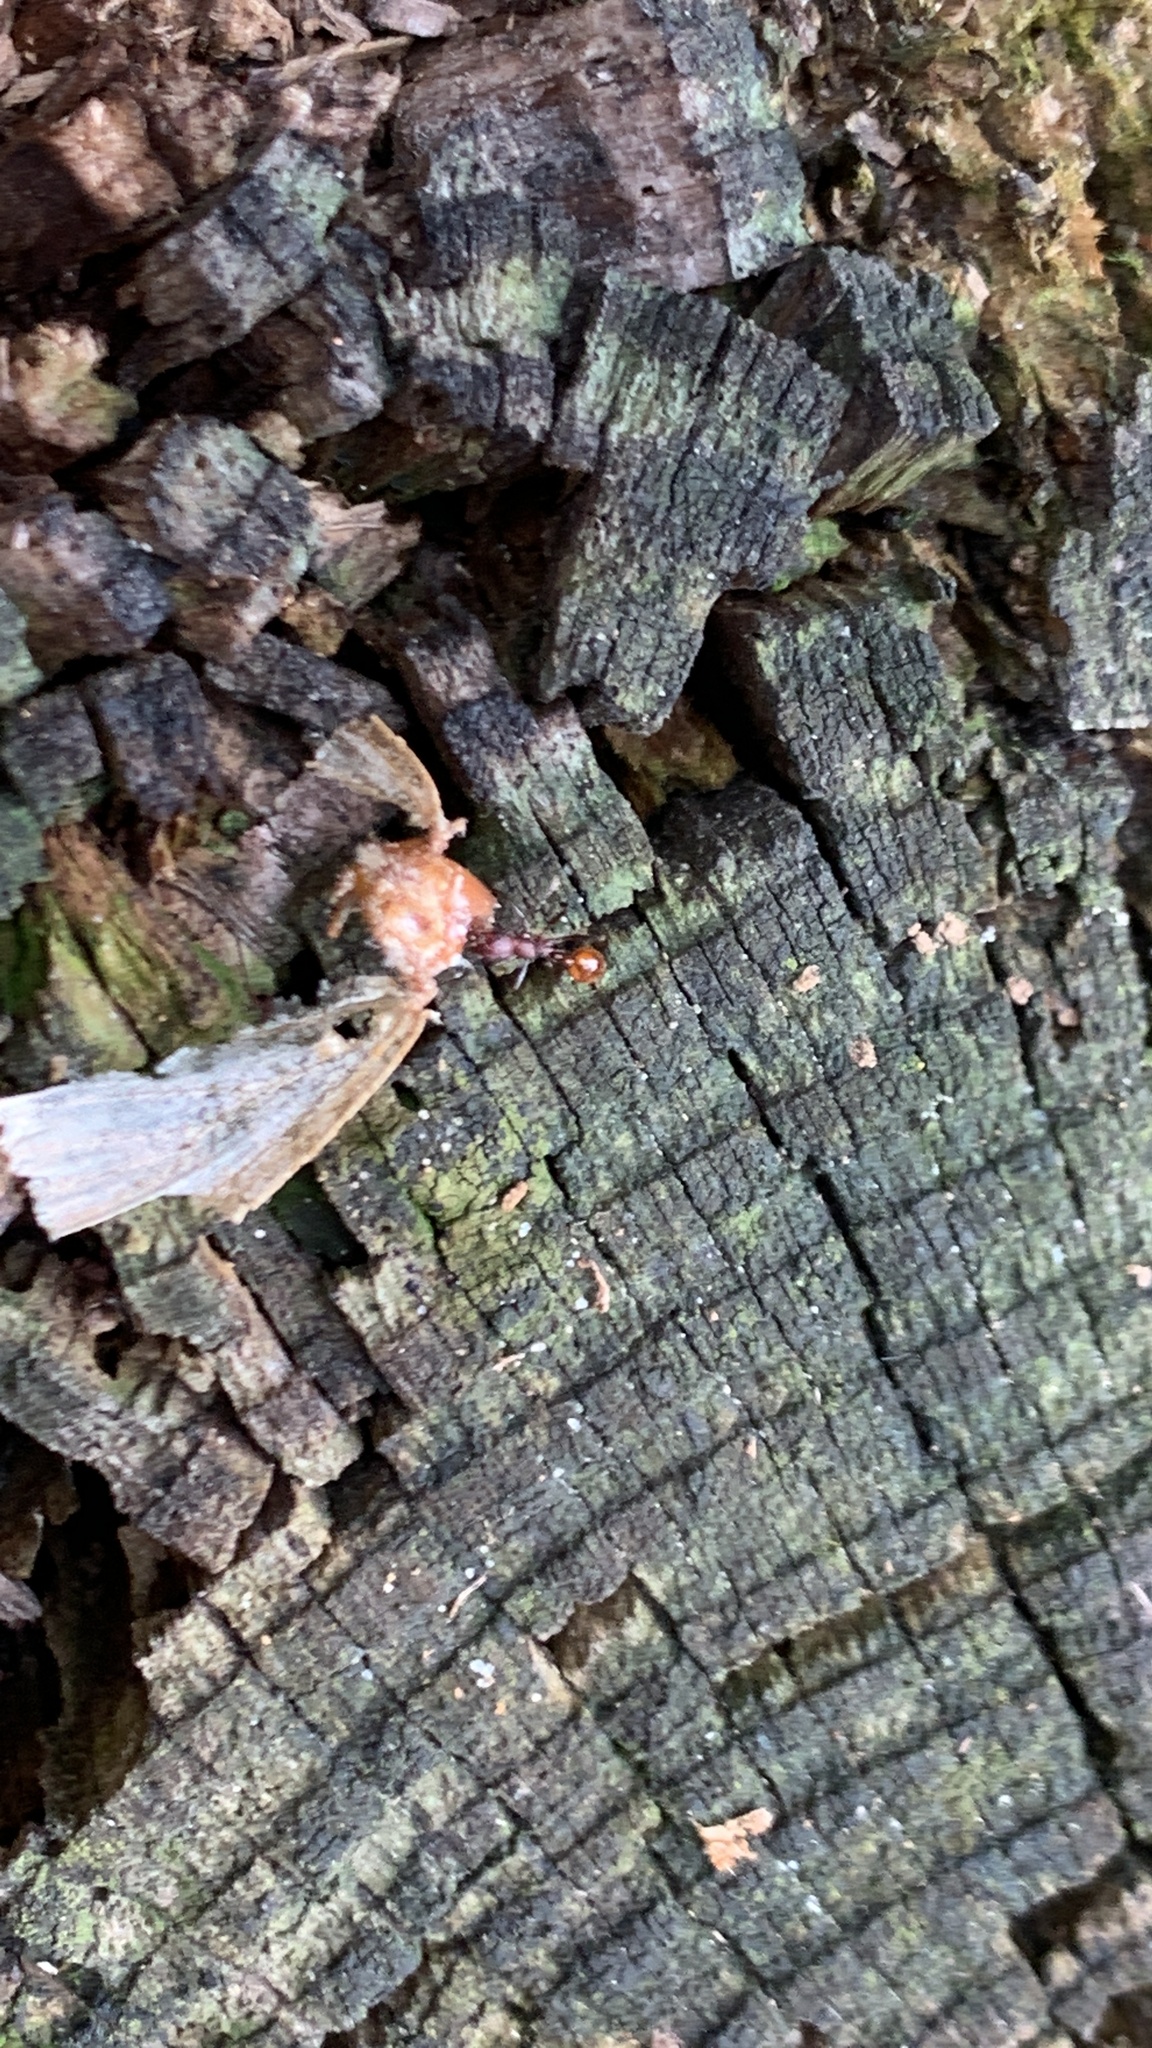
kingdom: Animalia
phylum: Arthropoda
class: Insecta
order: Hymenoptera
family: Formicidae
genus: Aphaenogaster
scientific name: Aphaenogaster tennesseensis
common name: Tennessee thread-waisted ant
